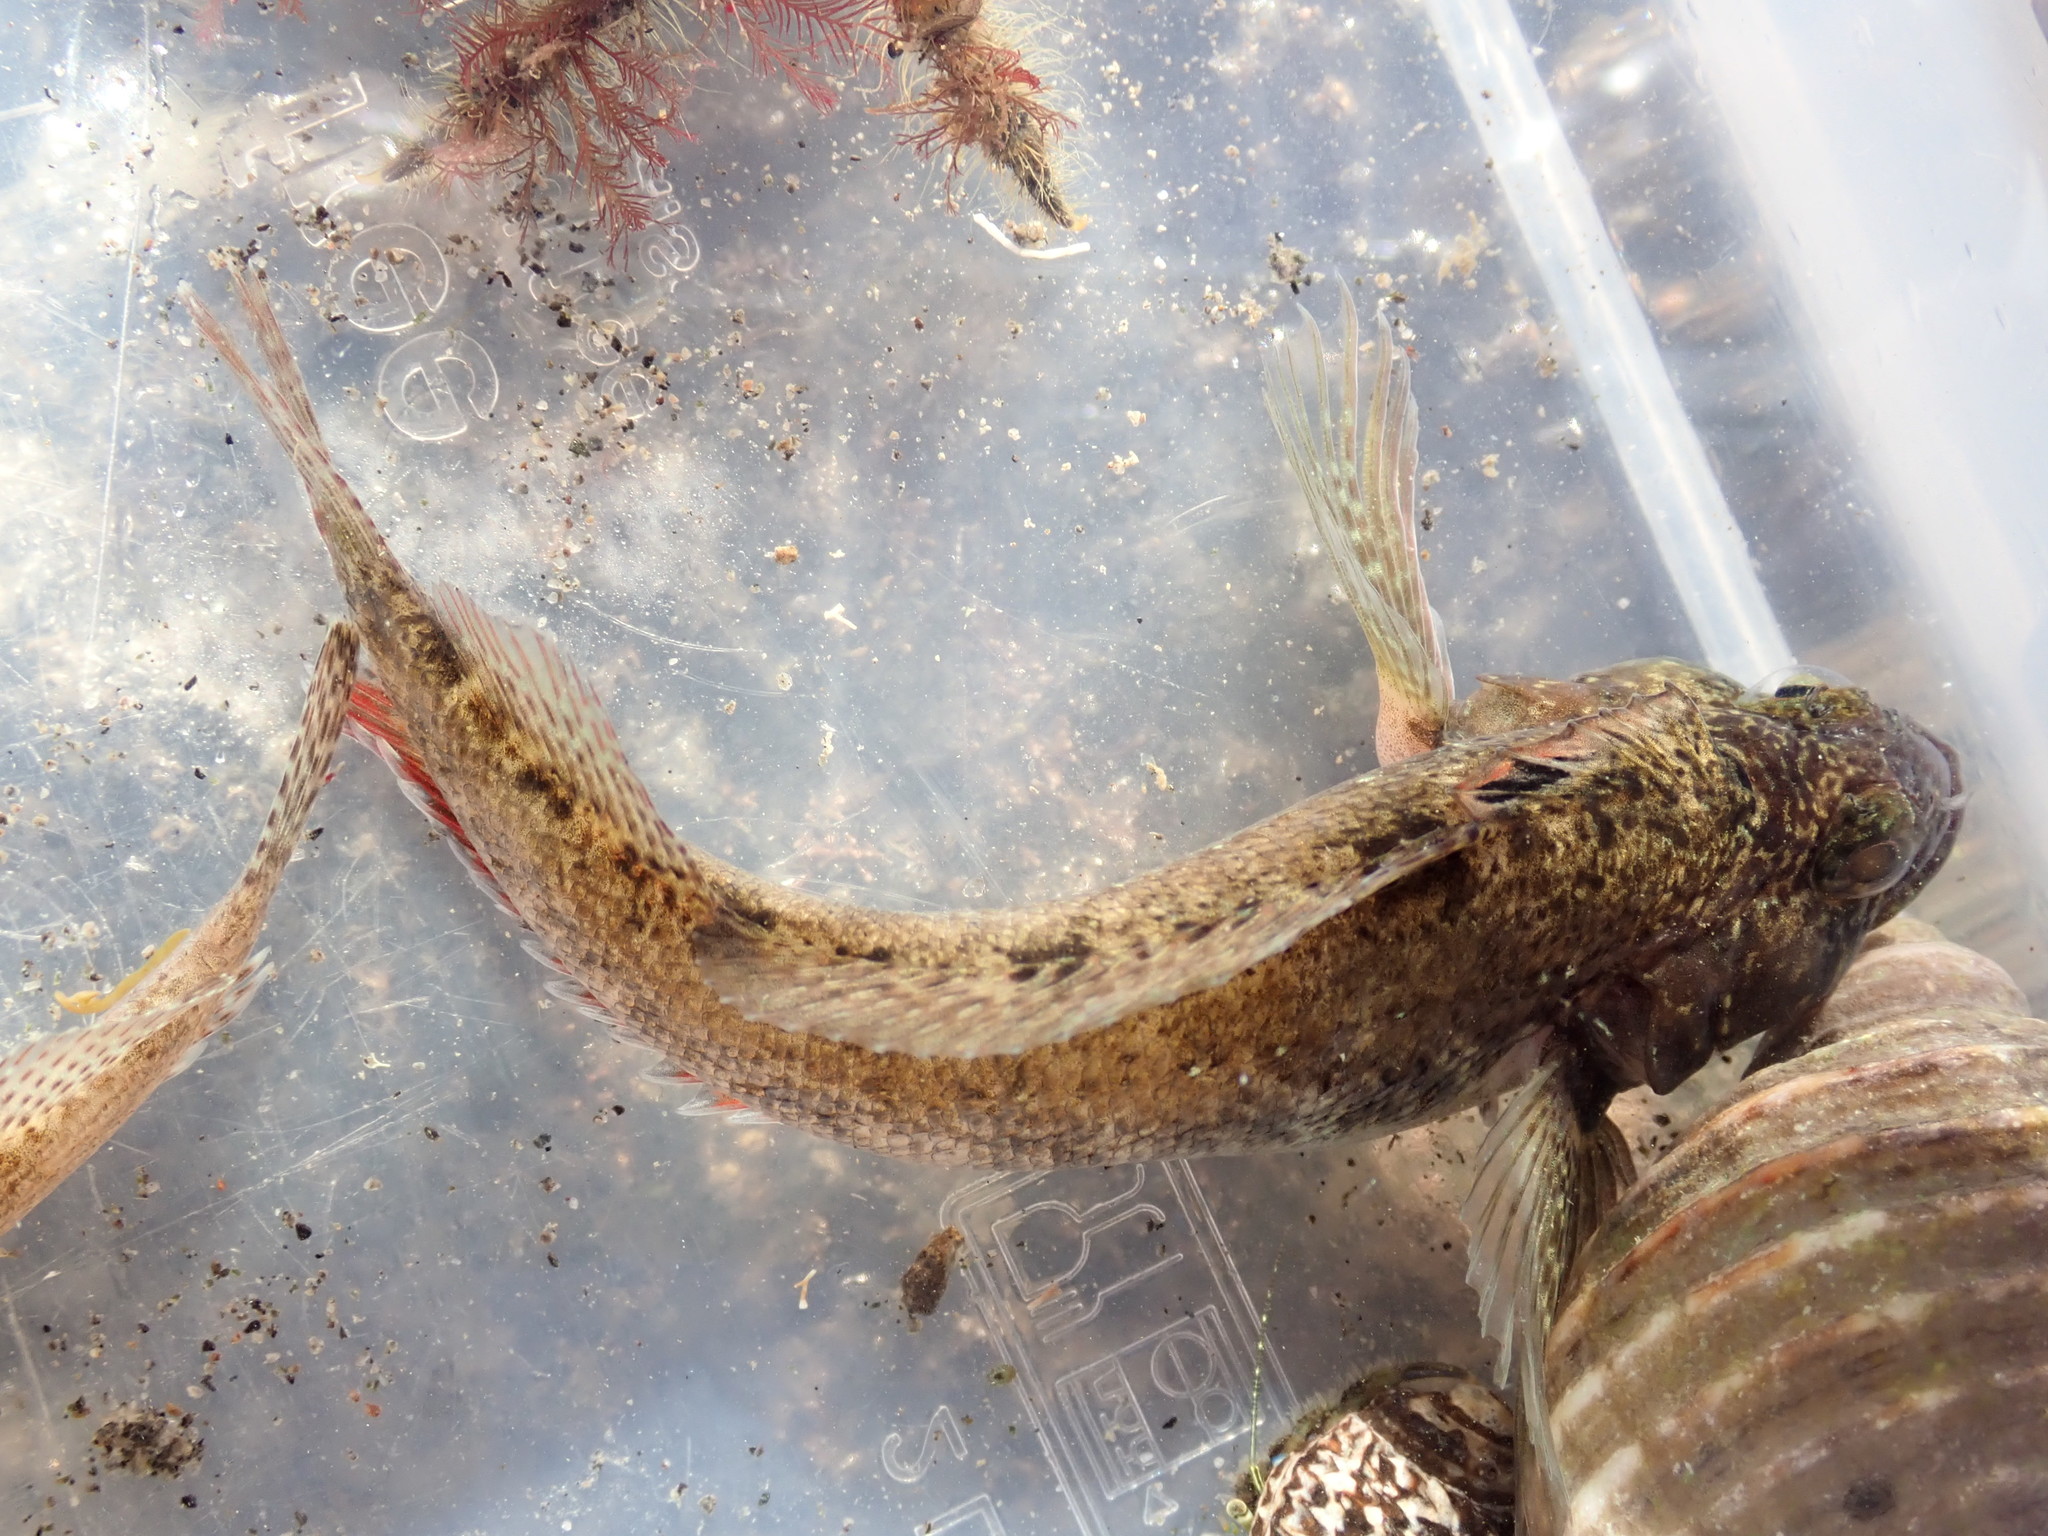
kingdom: Animalia
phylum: Chordata
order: Perciformes
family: Tripterygiidae
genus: Forsterygion
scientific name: Forsterygion gymnotum
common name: Multifid-tentacled robust triplefin
